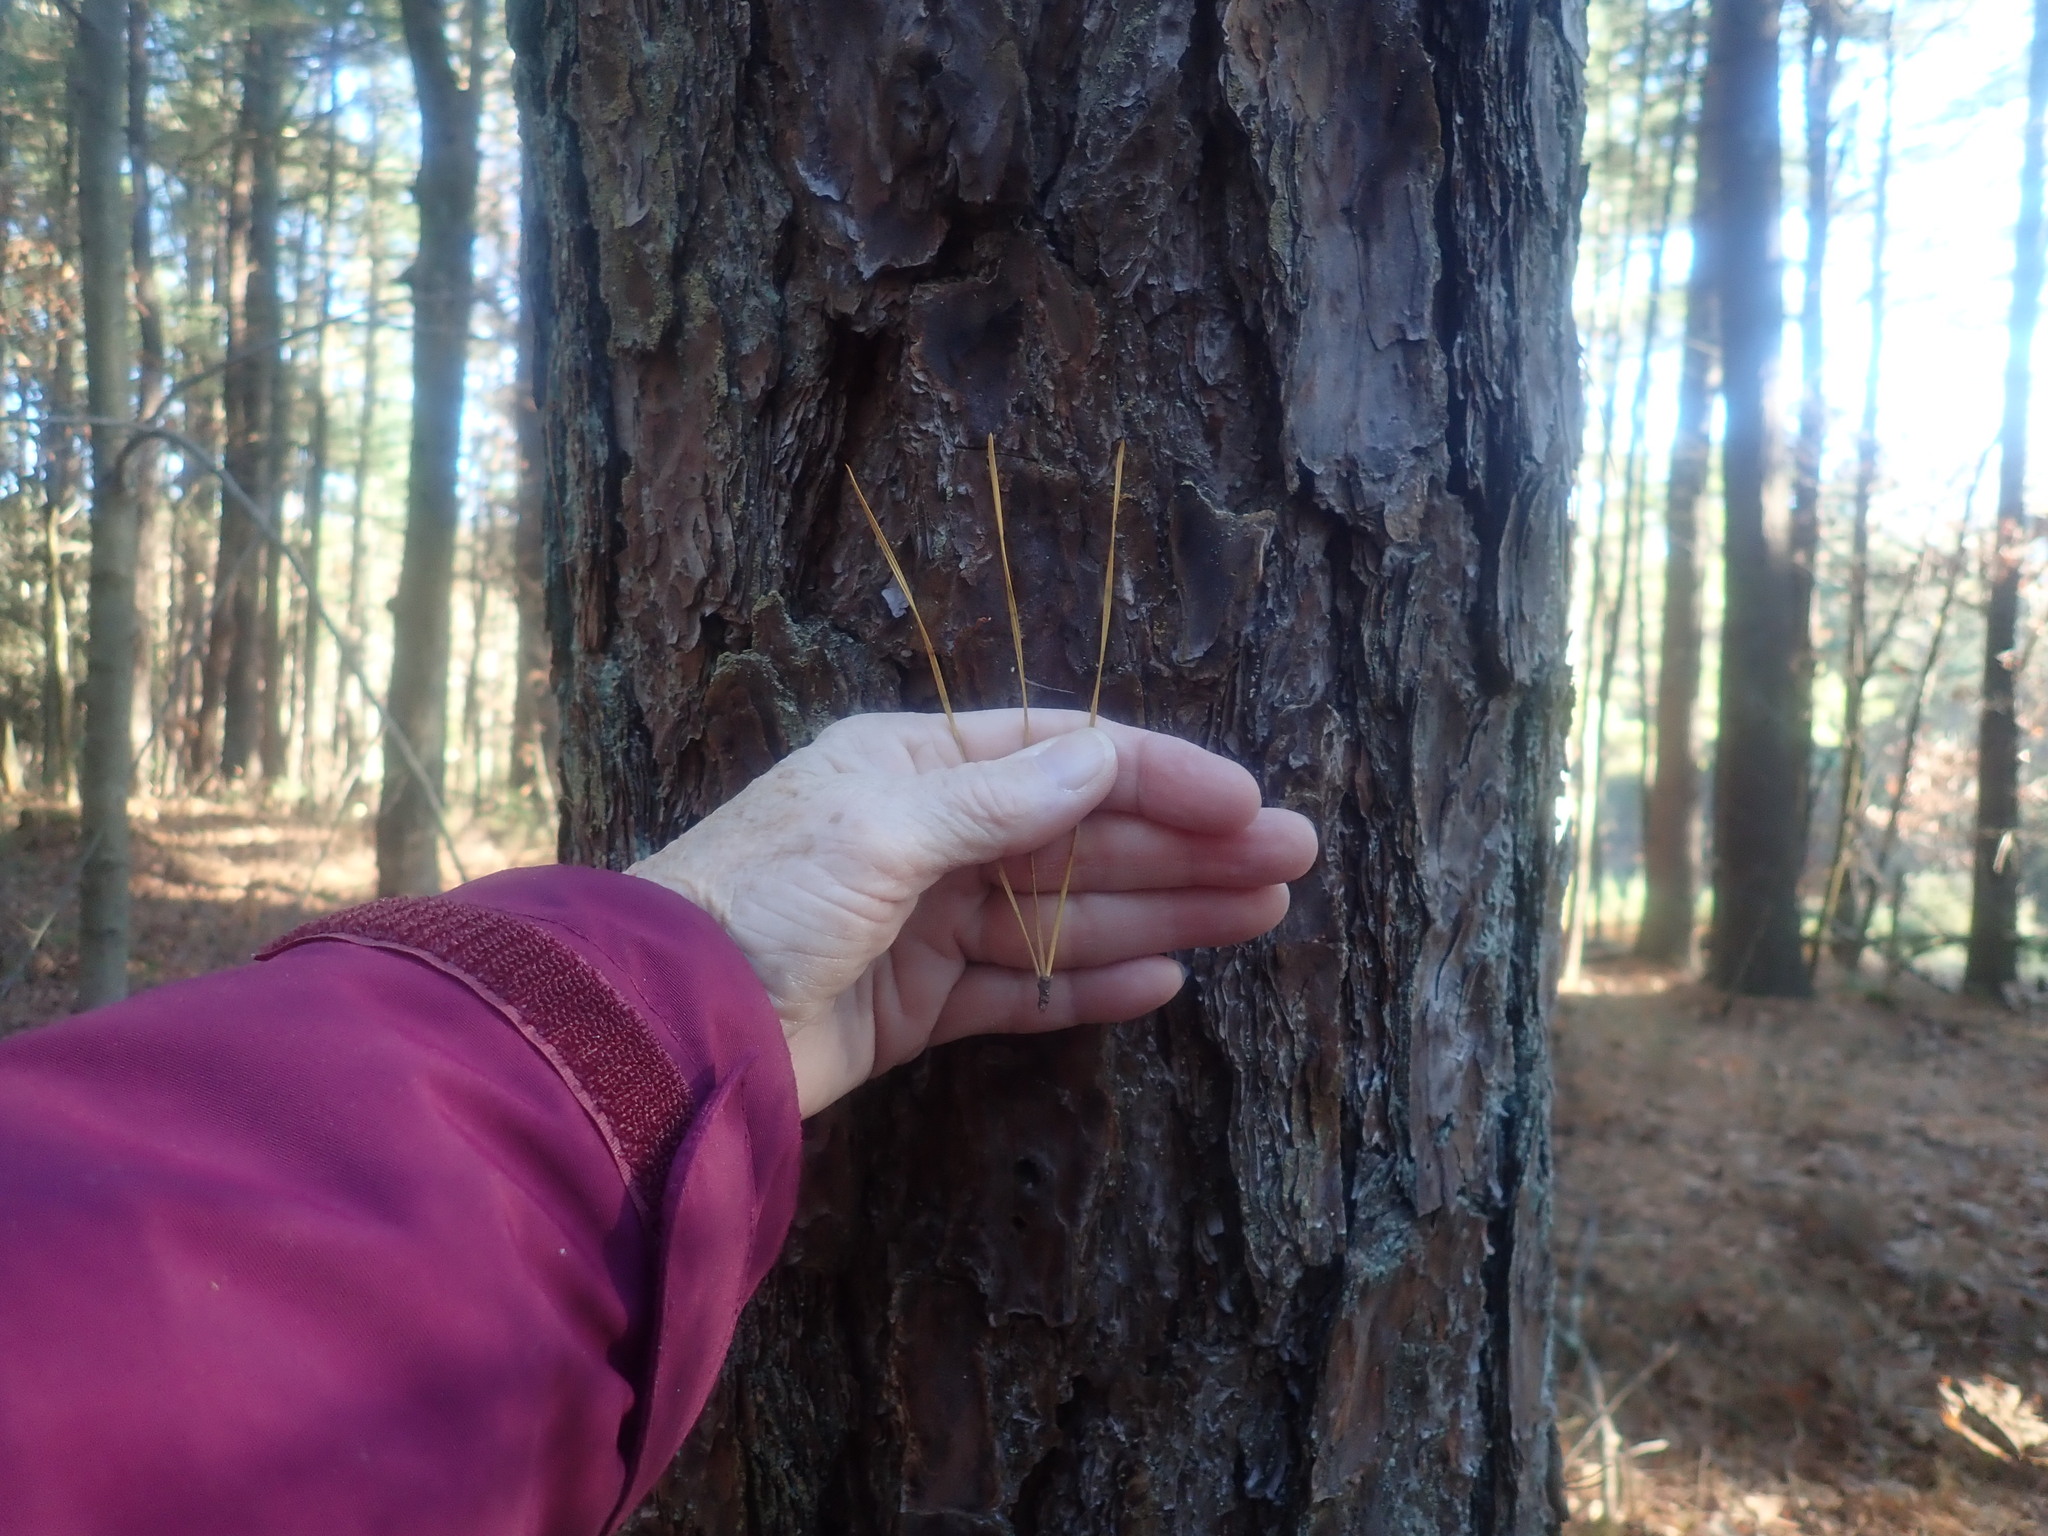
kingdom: Plantae
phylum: Tracheophyta
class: Pinopsida
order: Pinales
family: Pinaceae
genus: Pinus
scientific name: Pinus rigida
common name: Pitch pine
